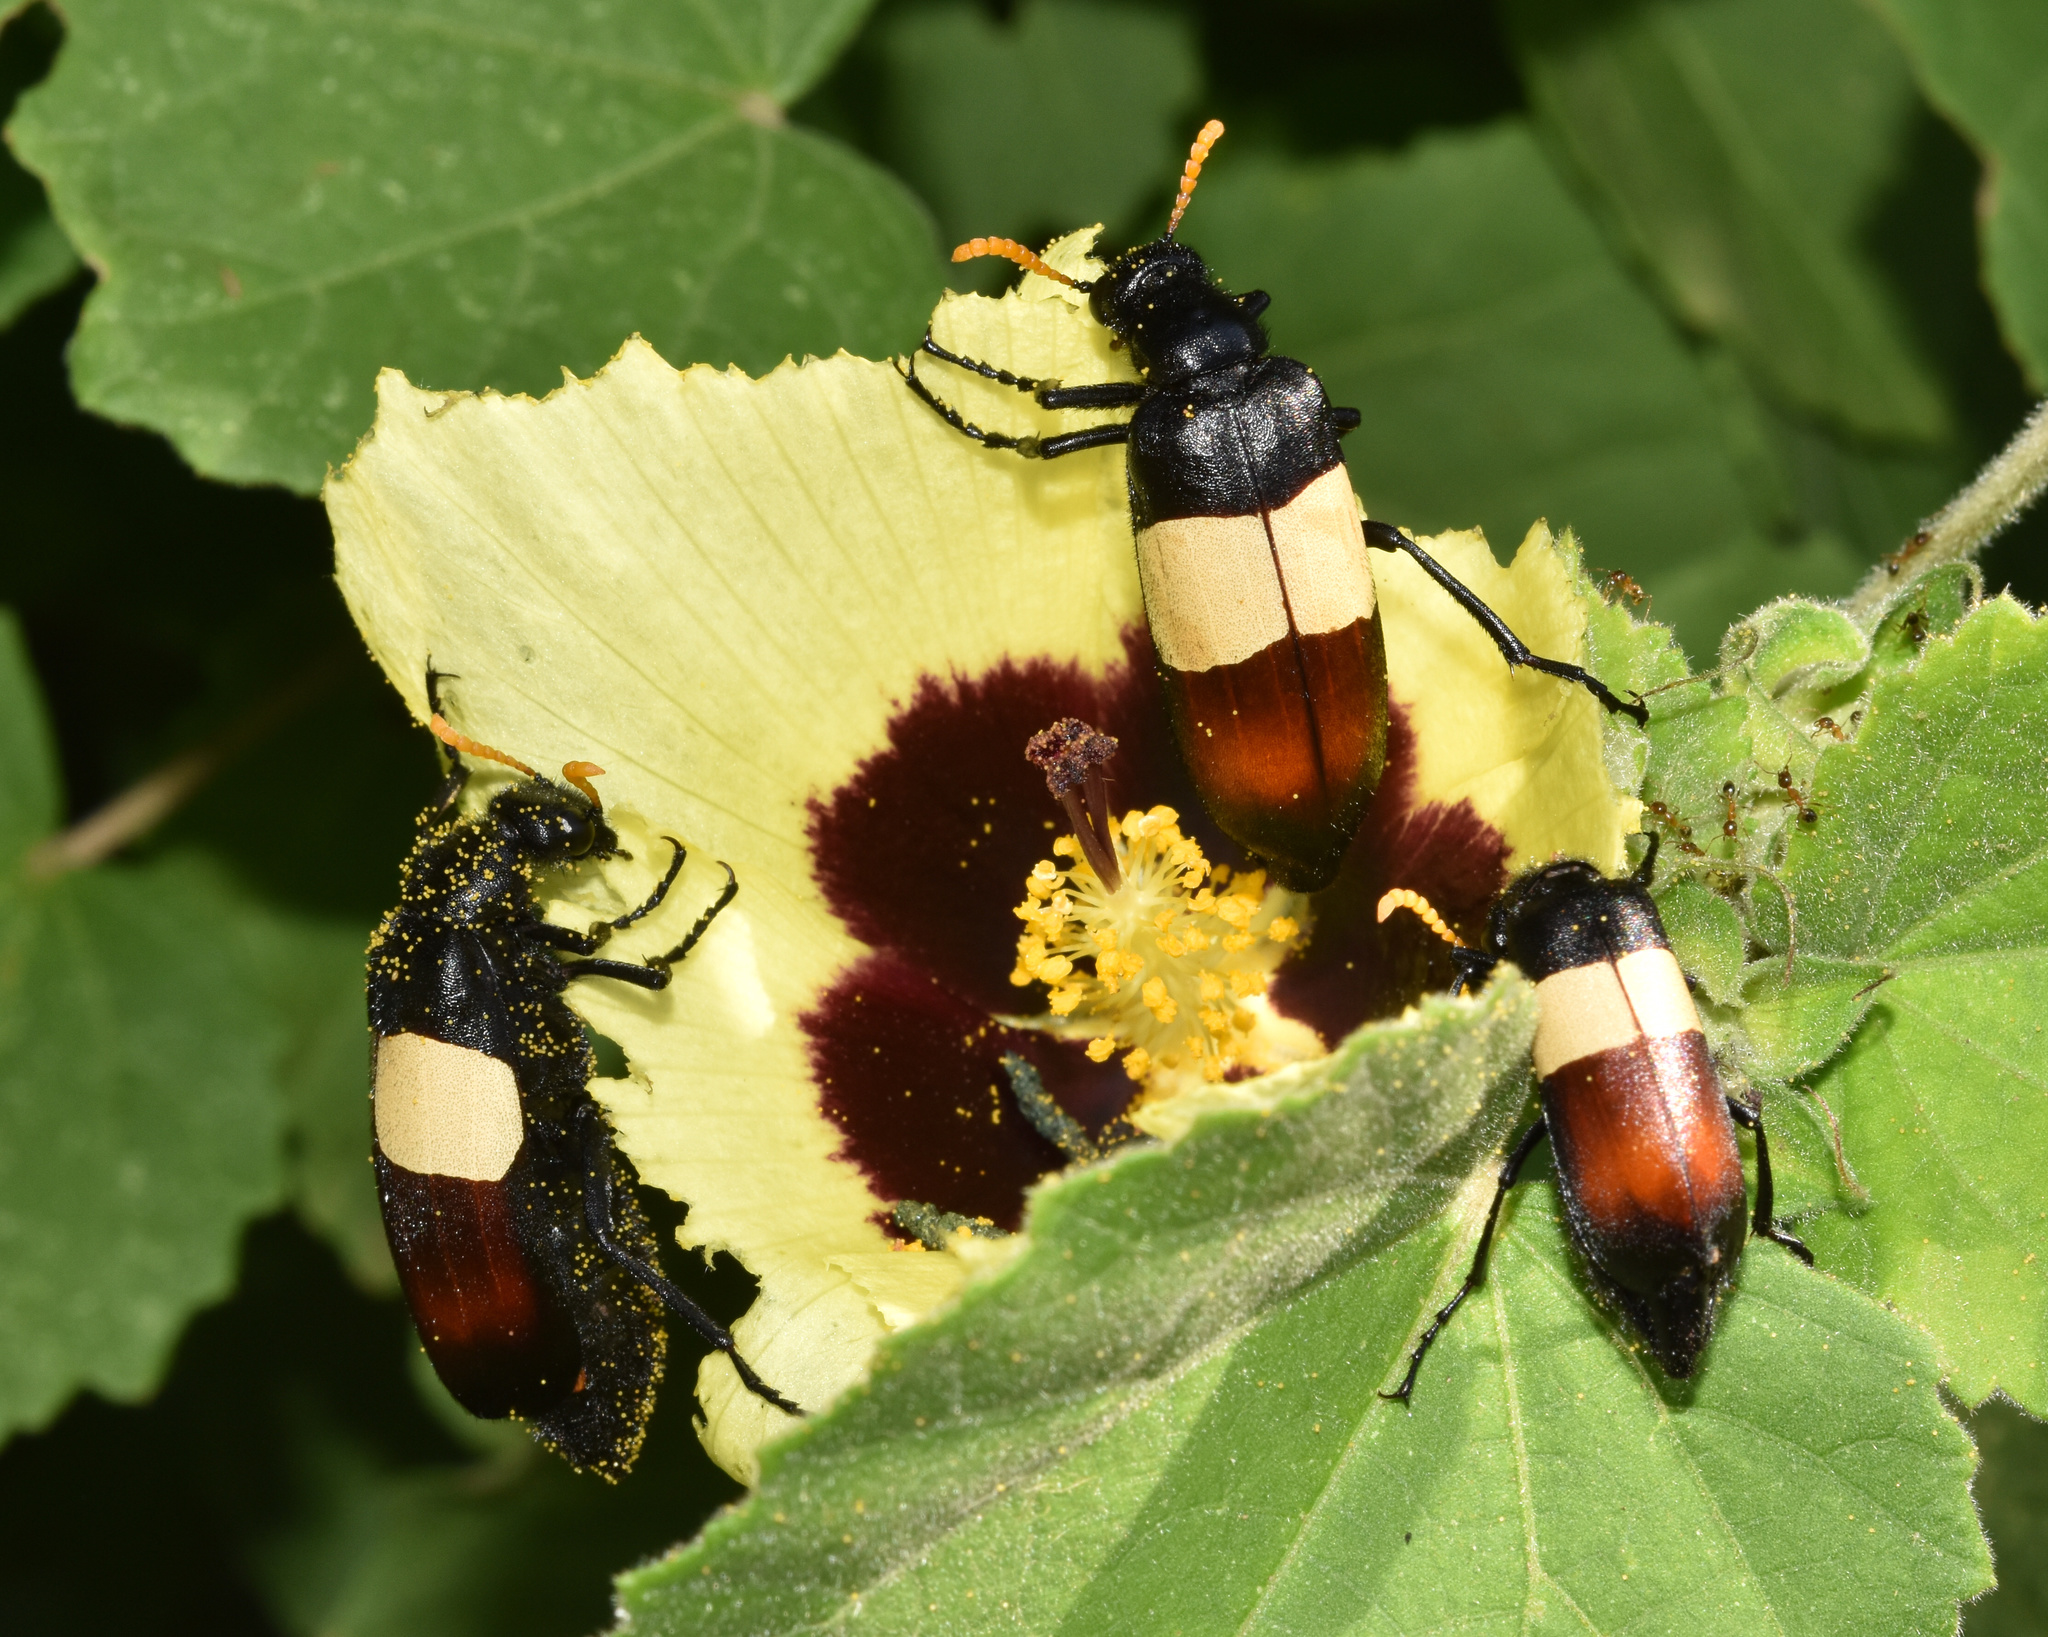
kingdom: Plantae
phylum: Tracheophyta
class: Magnoliopsida
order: Malvales
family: Malvaceae
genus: Hibiscus
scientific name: Hibiscus calyphyllus
